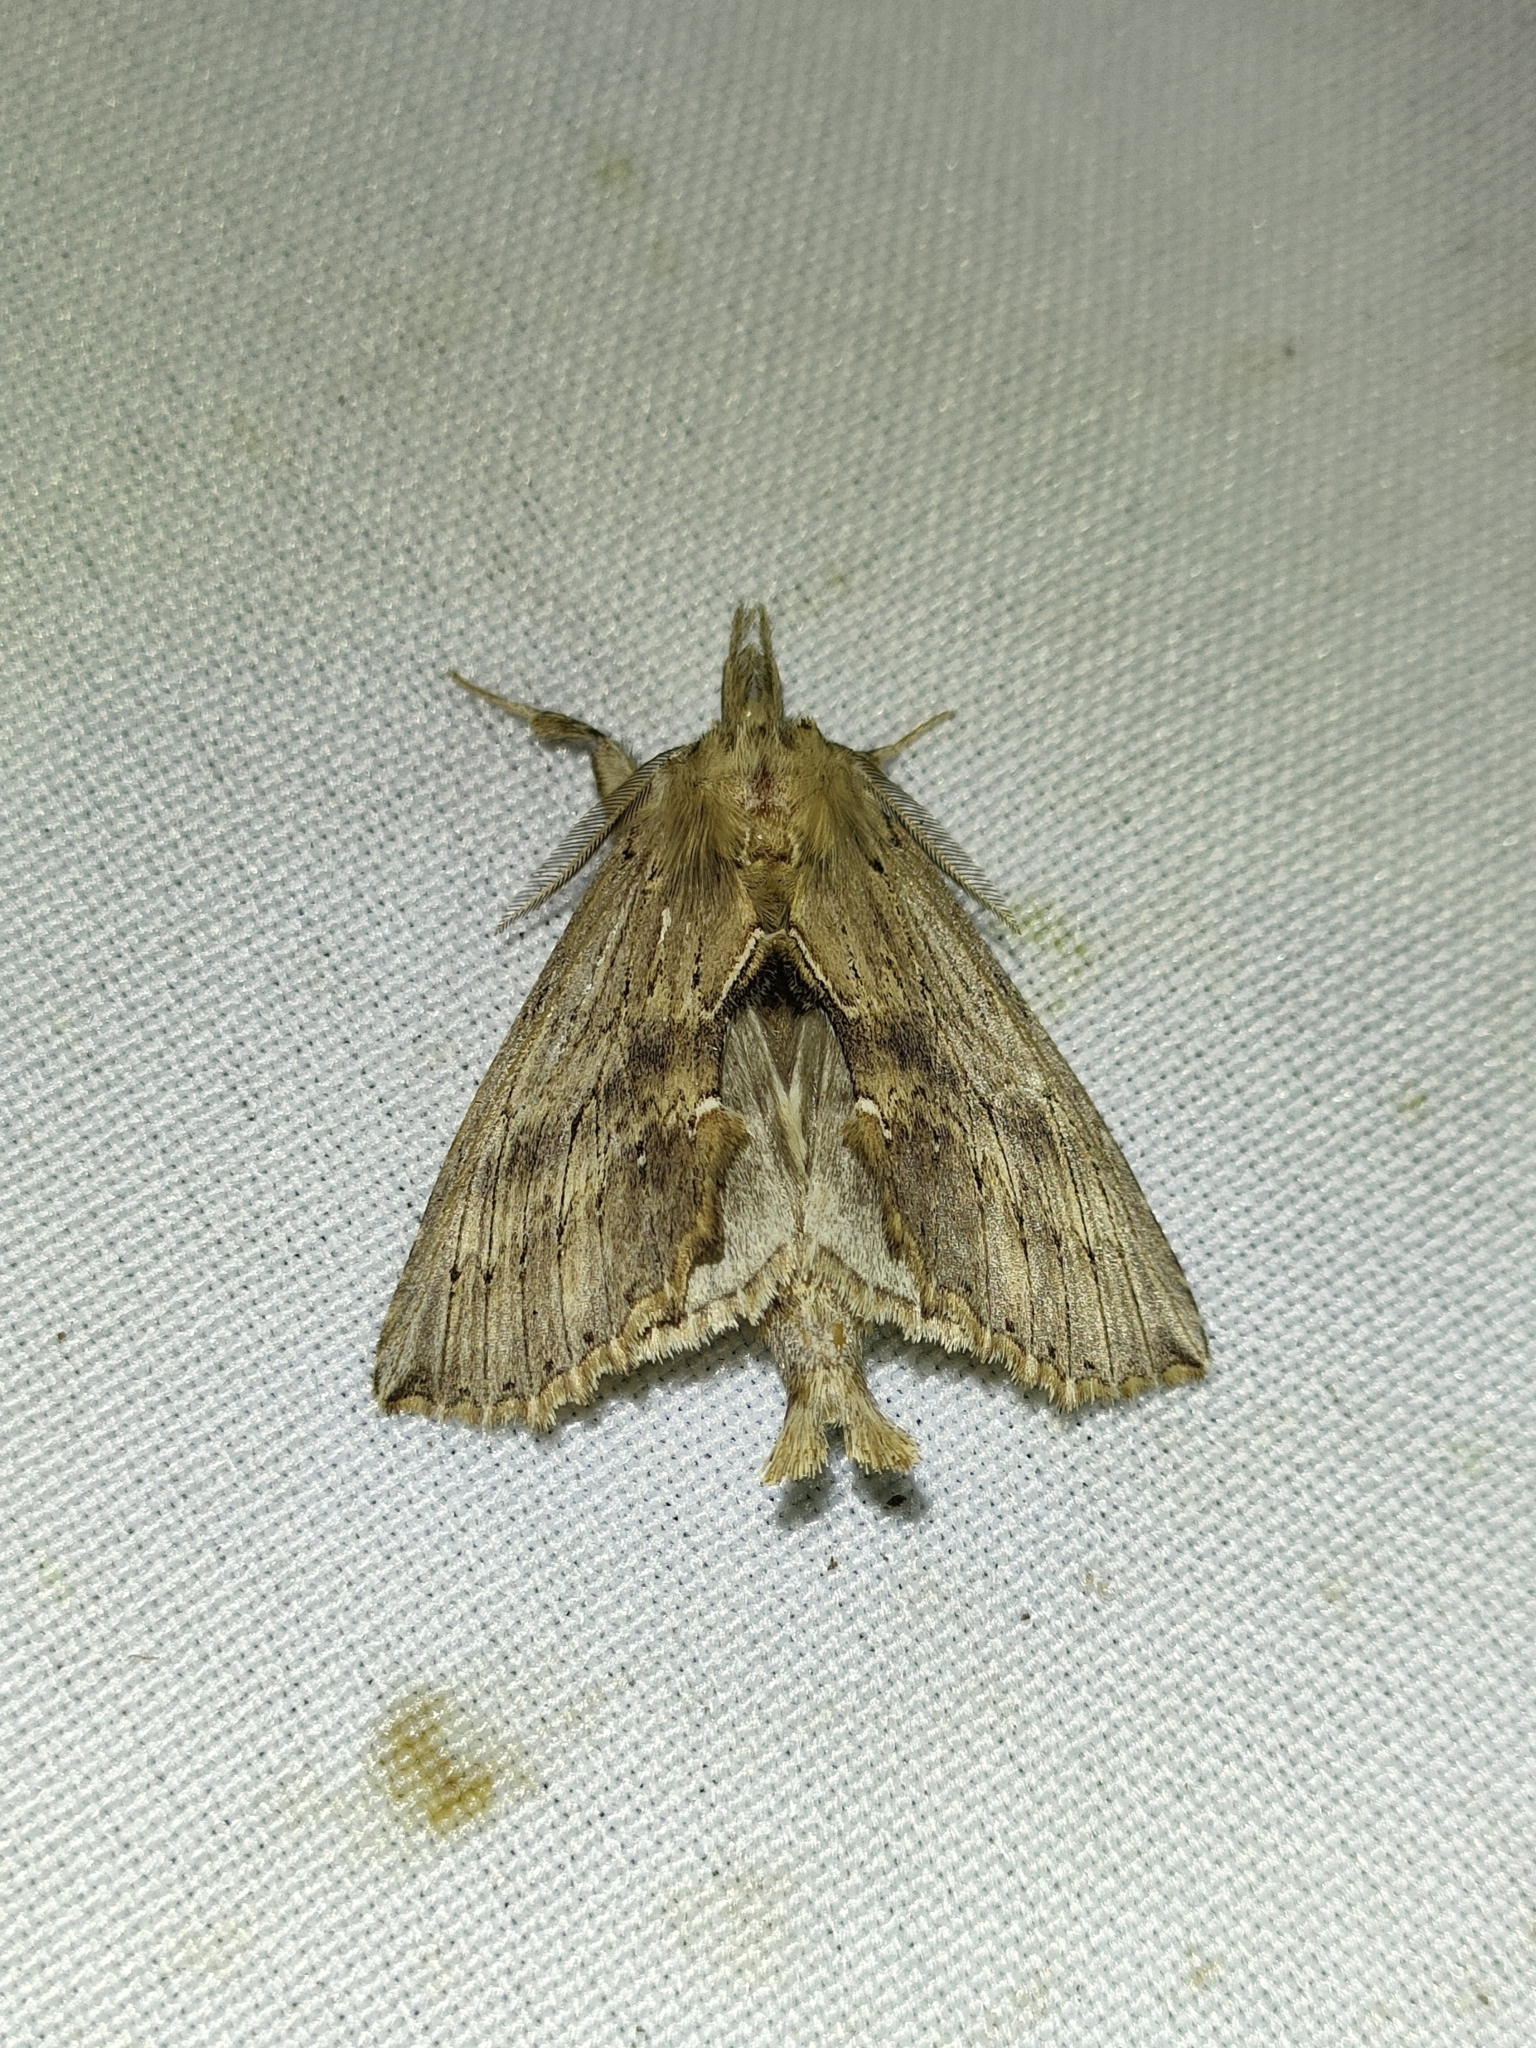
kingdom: Animalia
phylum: Arthropoda
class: Insecta
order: Lepidoptera
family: Notodontidae
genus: Pterostoma
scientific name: Pterostoma palpina
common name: Pale prominent
